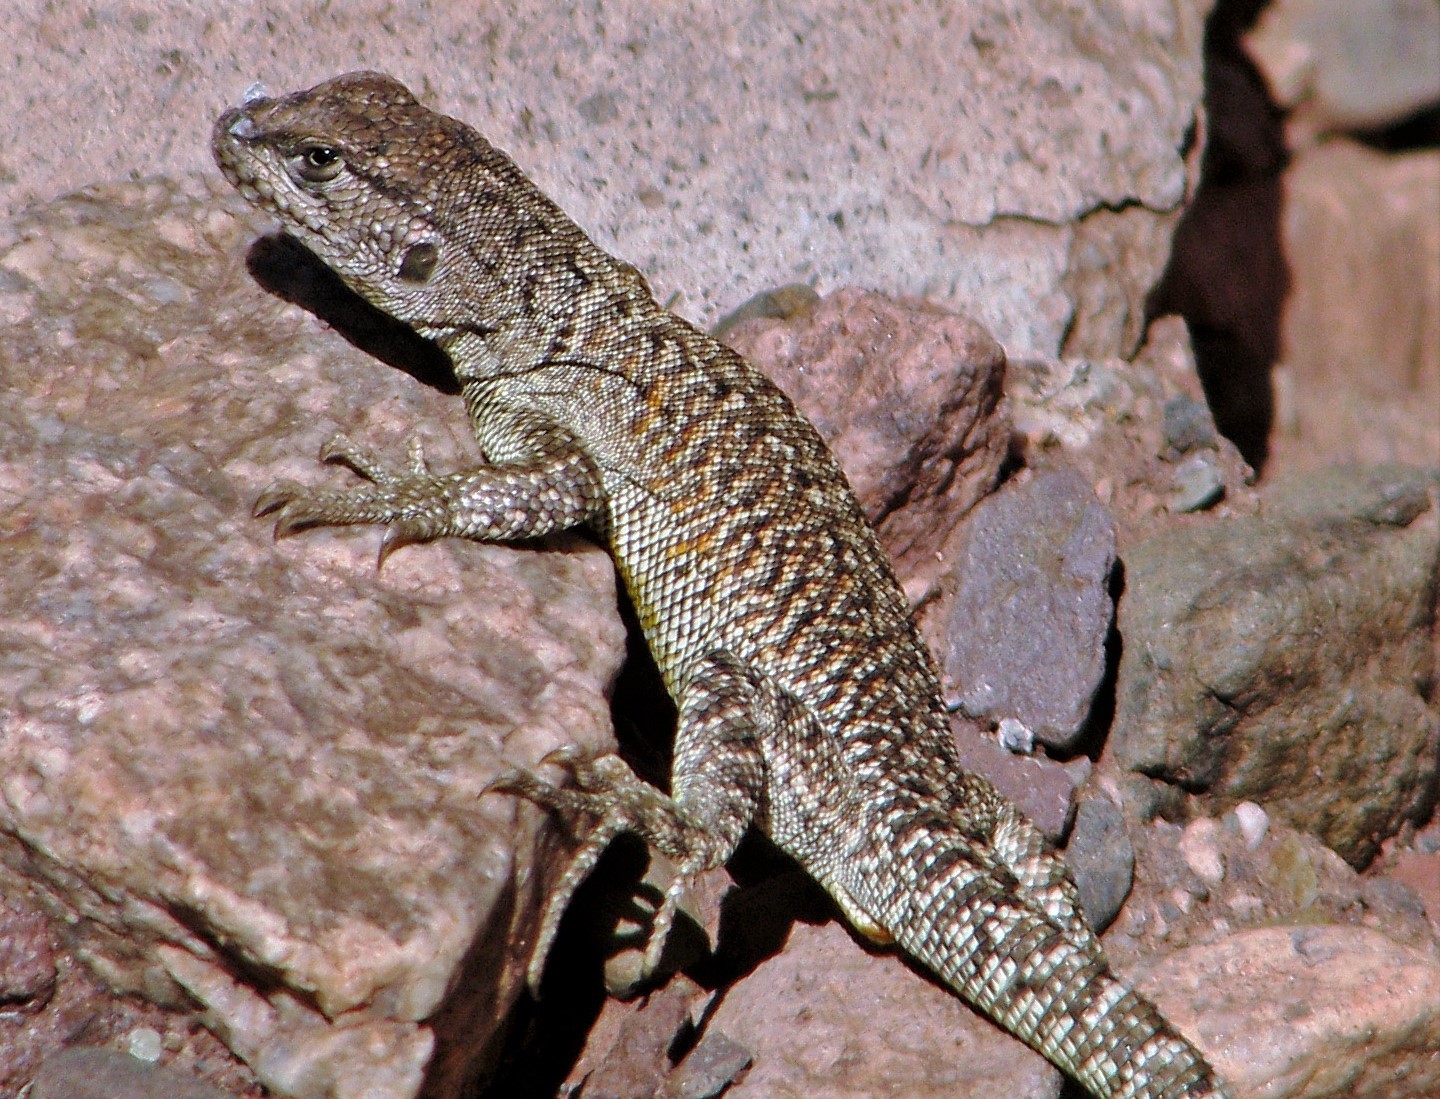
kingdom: Animalia
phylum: Chordata
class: Squamata
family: Liolaemidae
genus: Liolaemus
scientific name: Liolaemus gracielae
